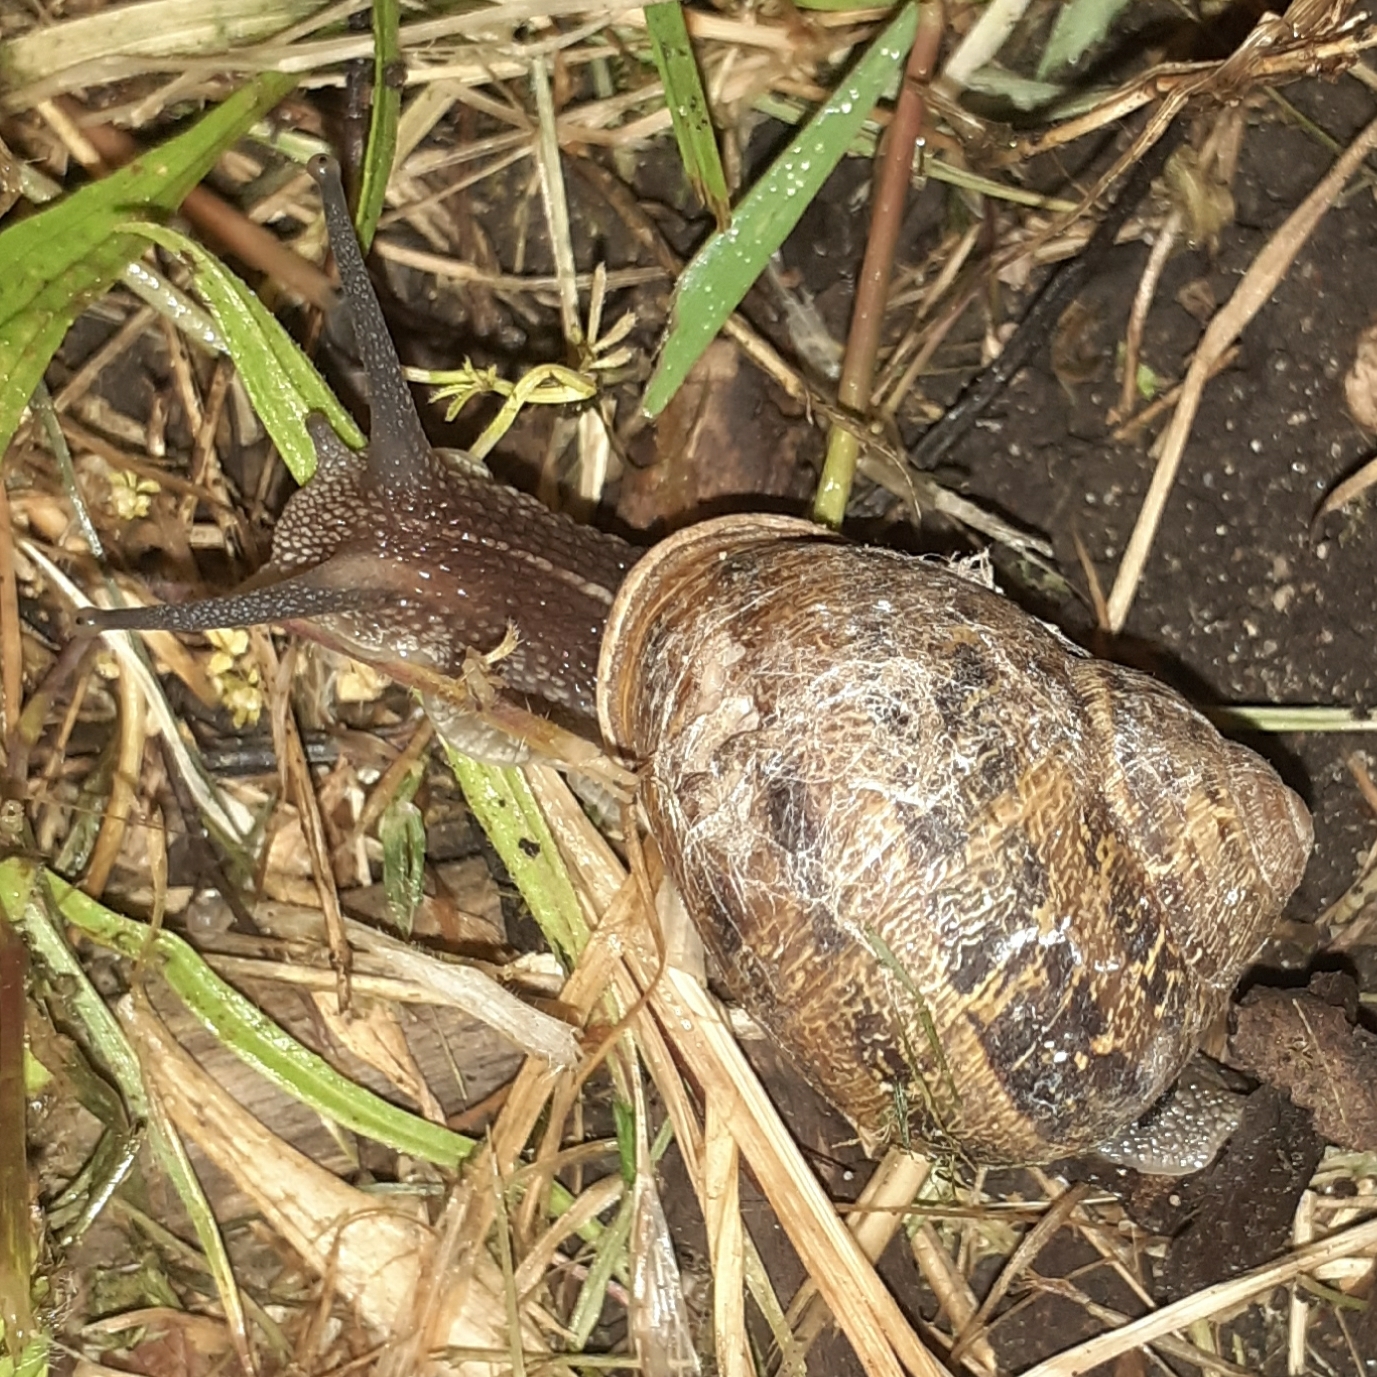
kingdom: Animalia
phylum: Mollusca
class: Gastropoda
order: Stylommatophora
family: Helicidae
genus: Cornu
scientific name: Cornu aspersum
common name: Brown garden snail
